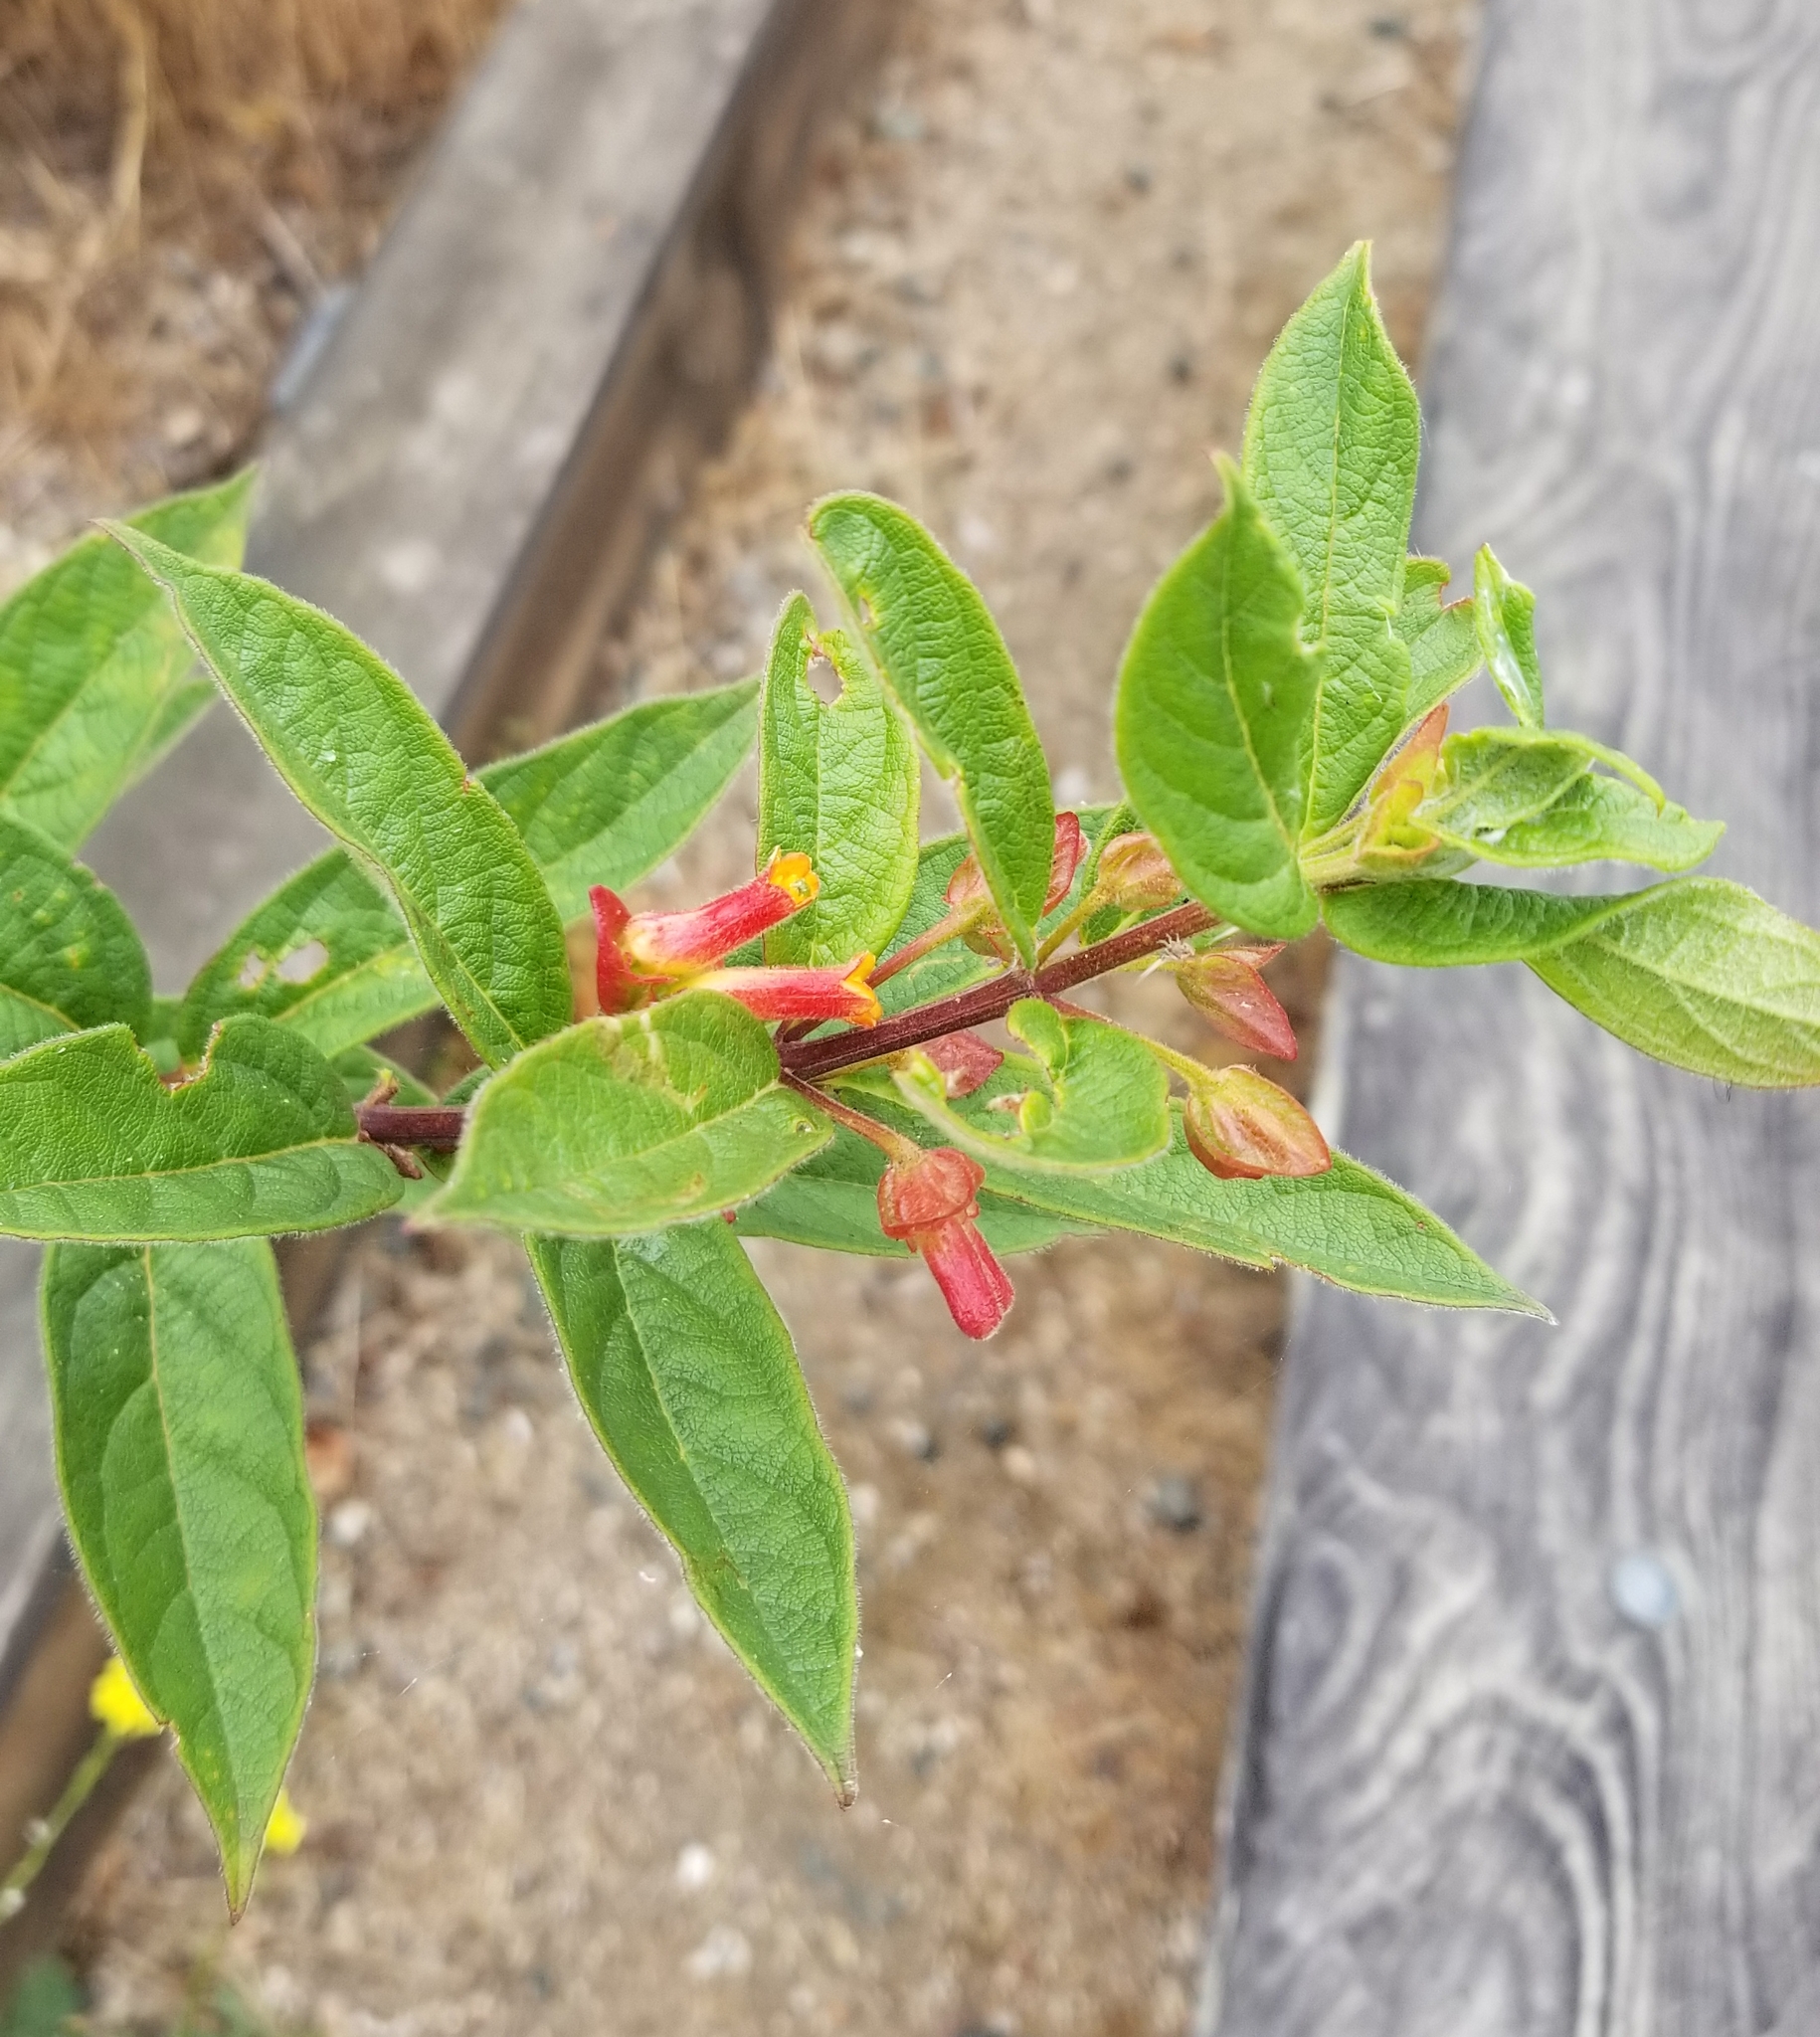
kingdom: Plantae
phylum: Tracheophyta
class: Magnoliopsida
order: Dipsacales
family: Caprifoliaceae
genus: Lonicera
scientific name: Lonicera involucrata
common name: Californian honeysuckle
